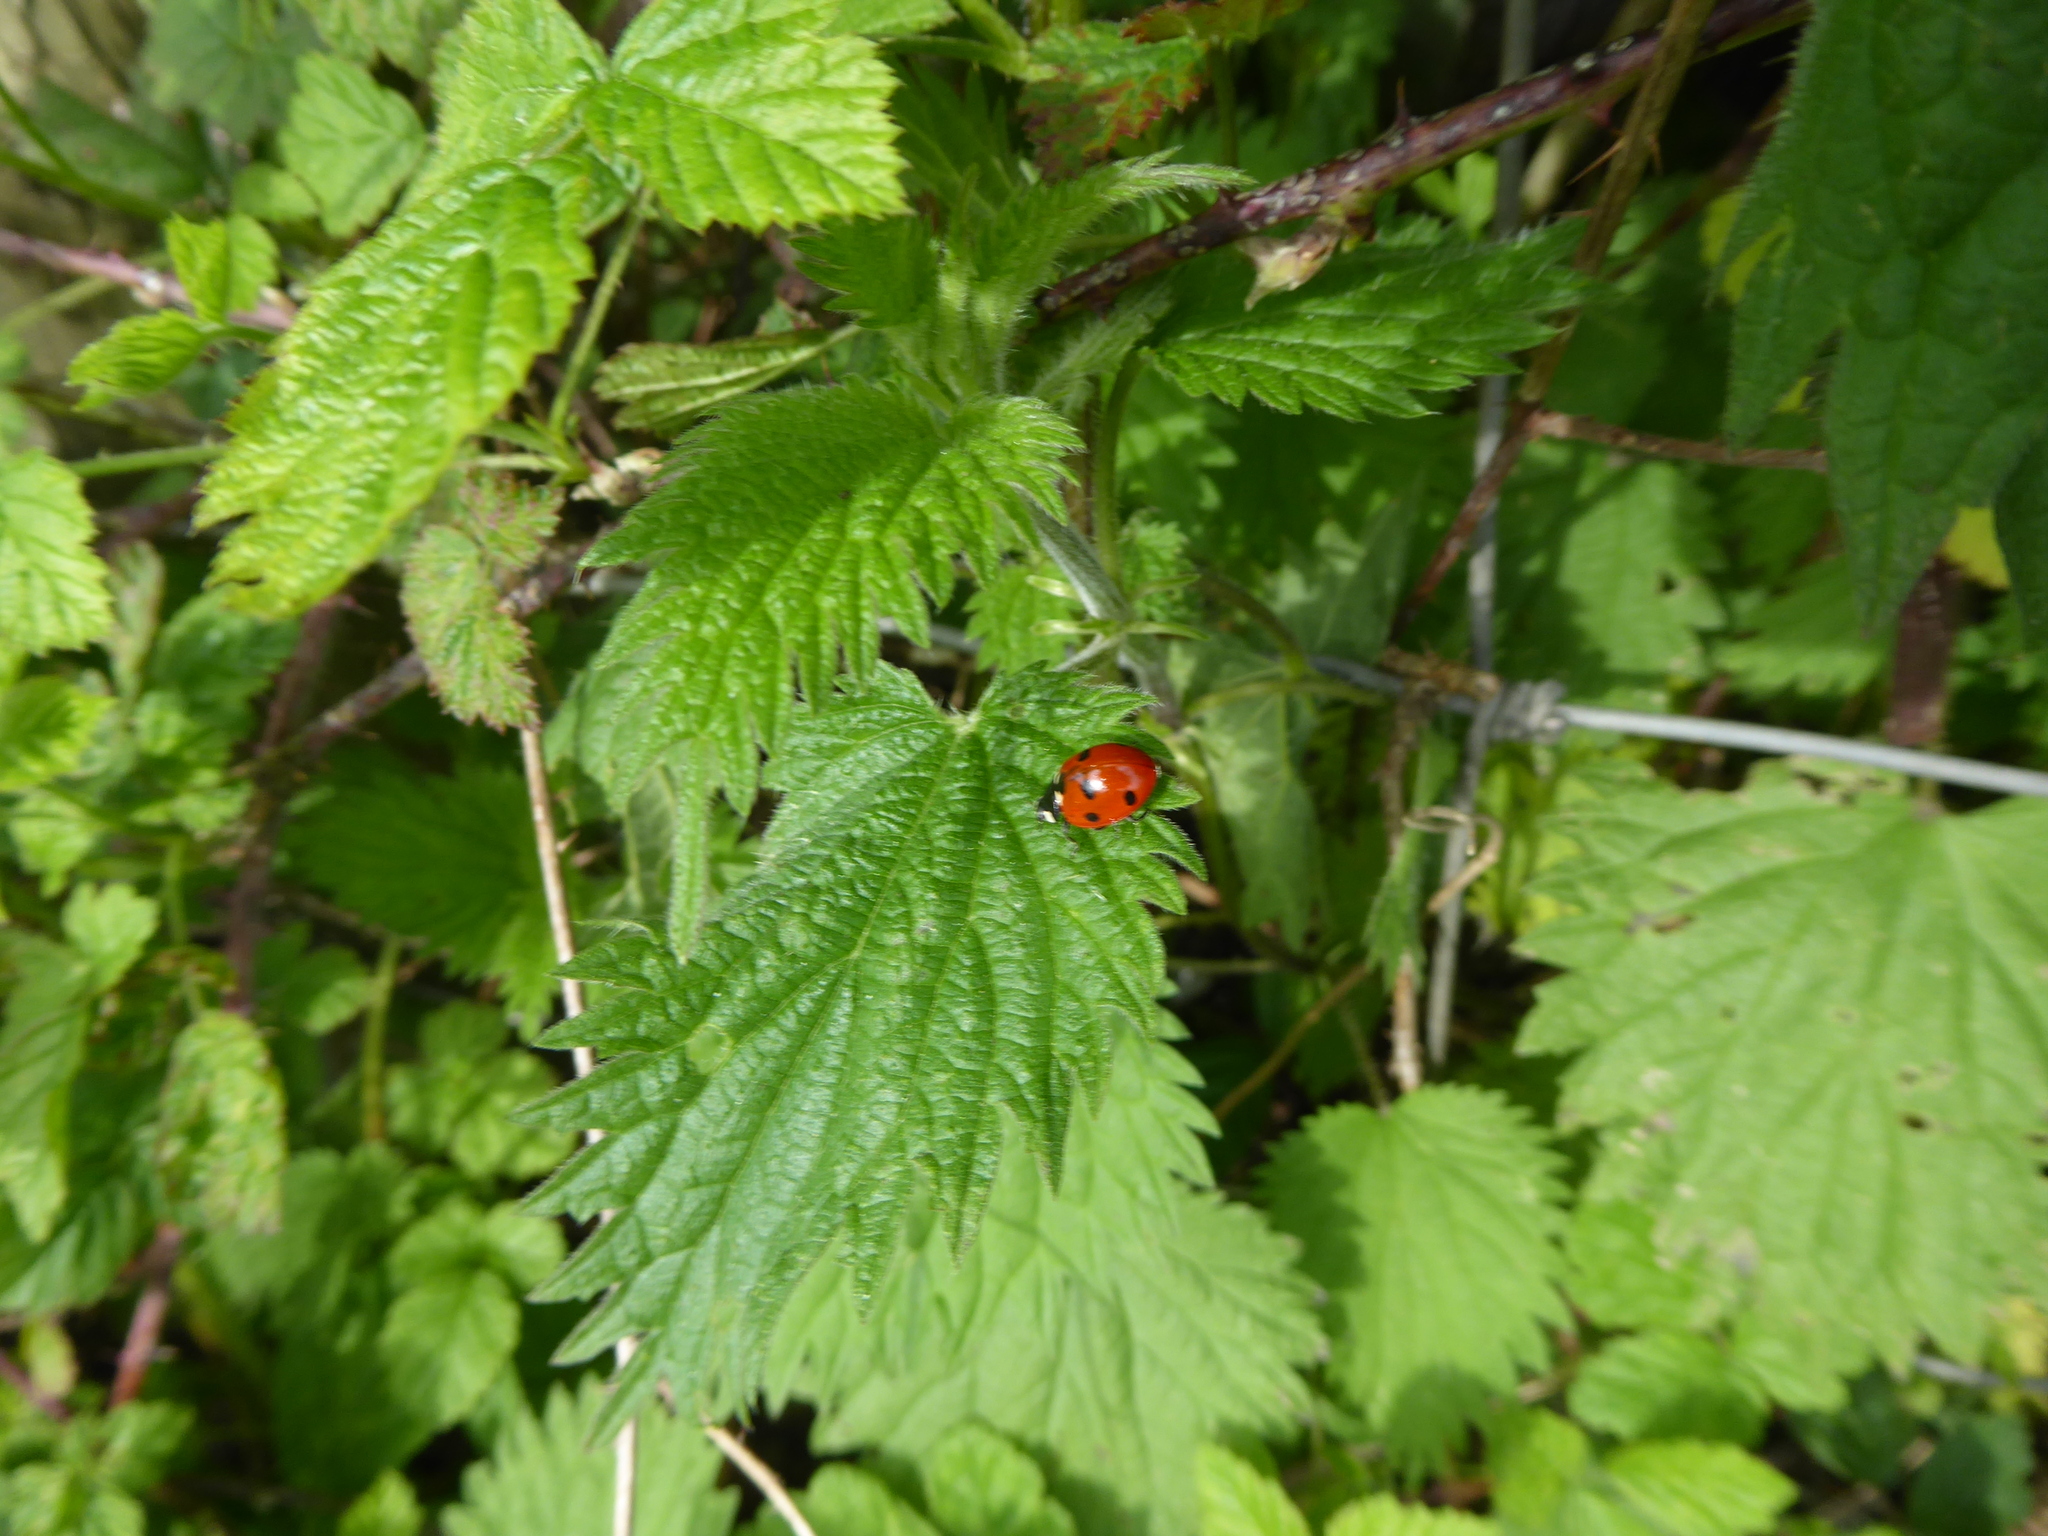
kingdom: Animalia
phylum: Arthropoda
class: Insecta
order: Coleoptera
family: Coccinellidae
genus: Coccinella
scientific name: Coccinella septempunctata
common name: Sevenspotted lady beetle
